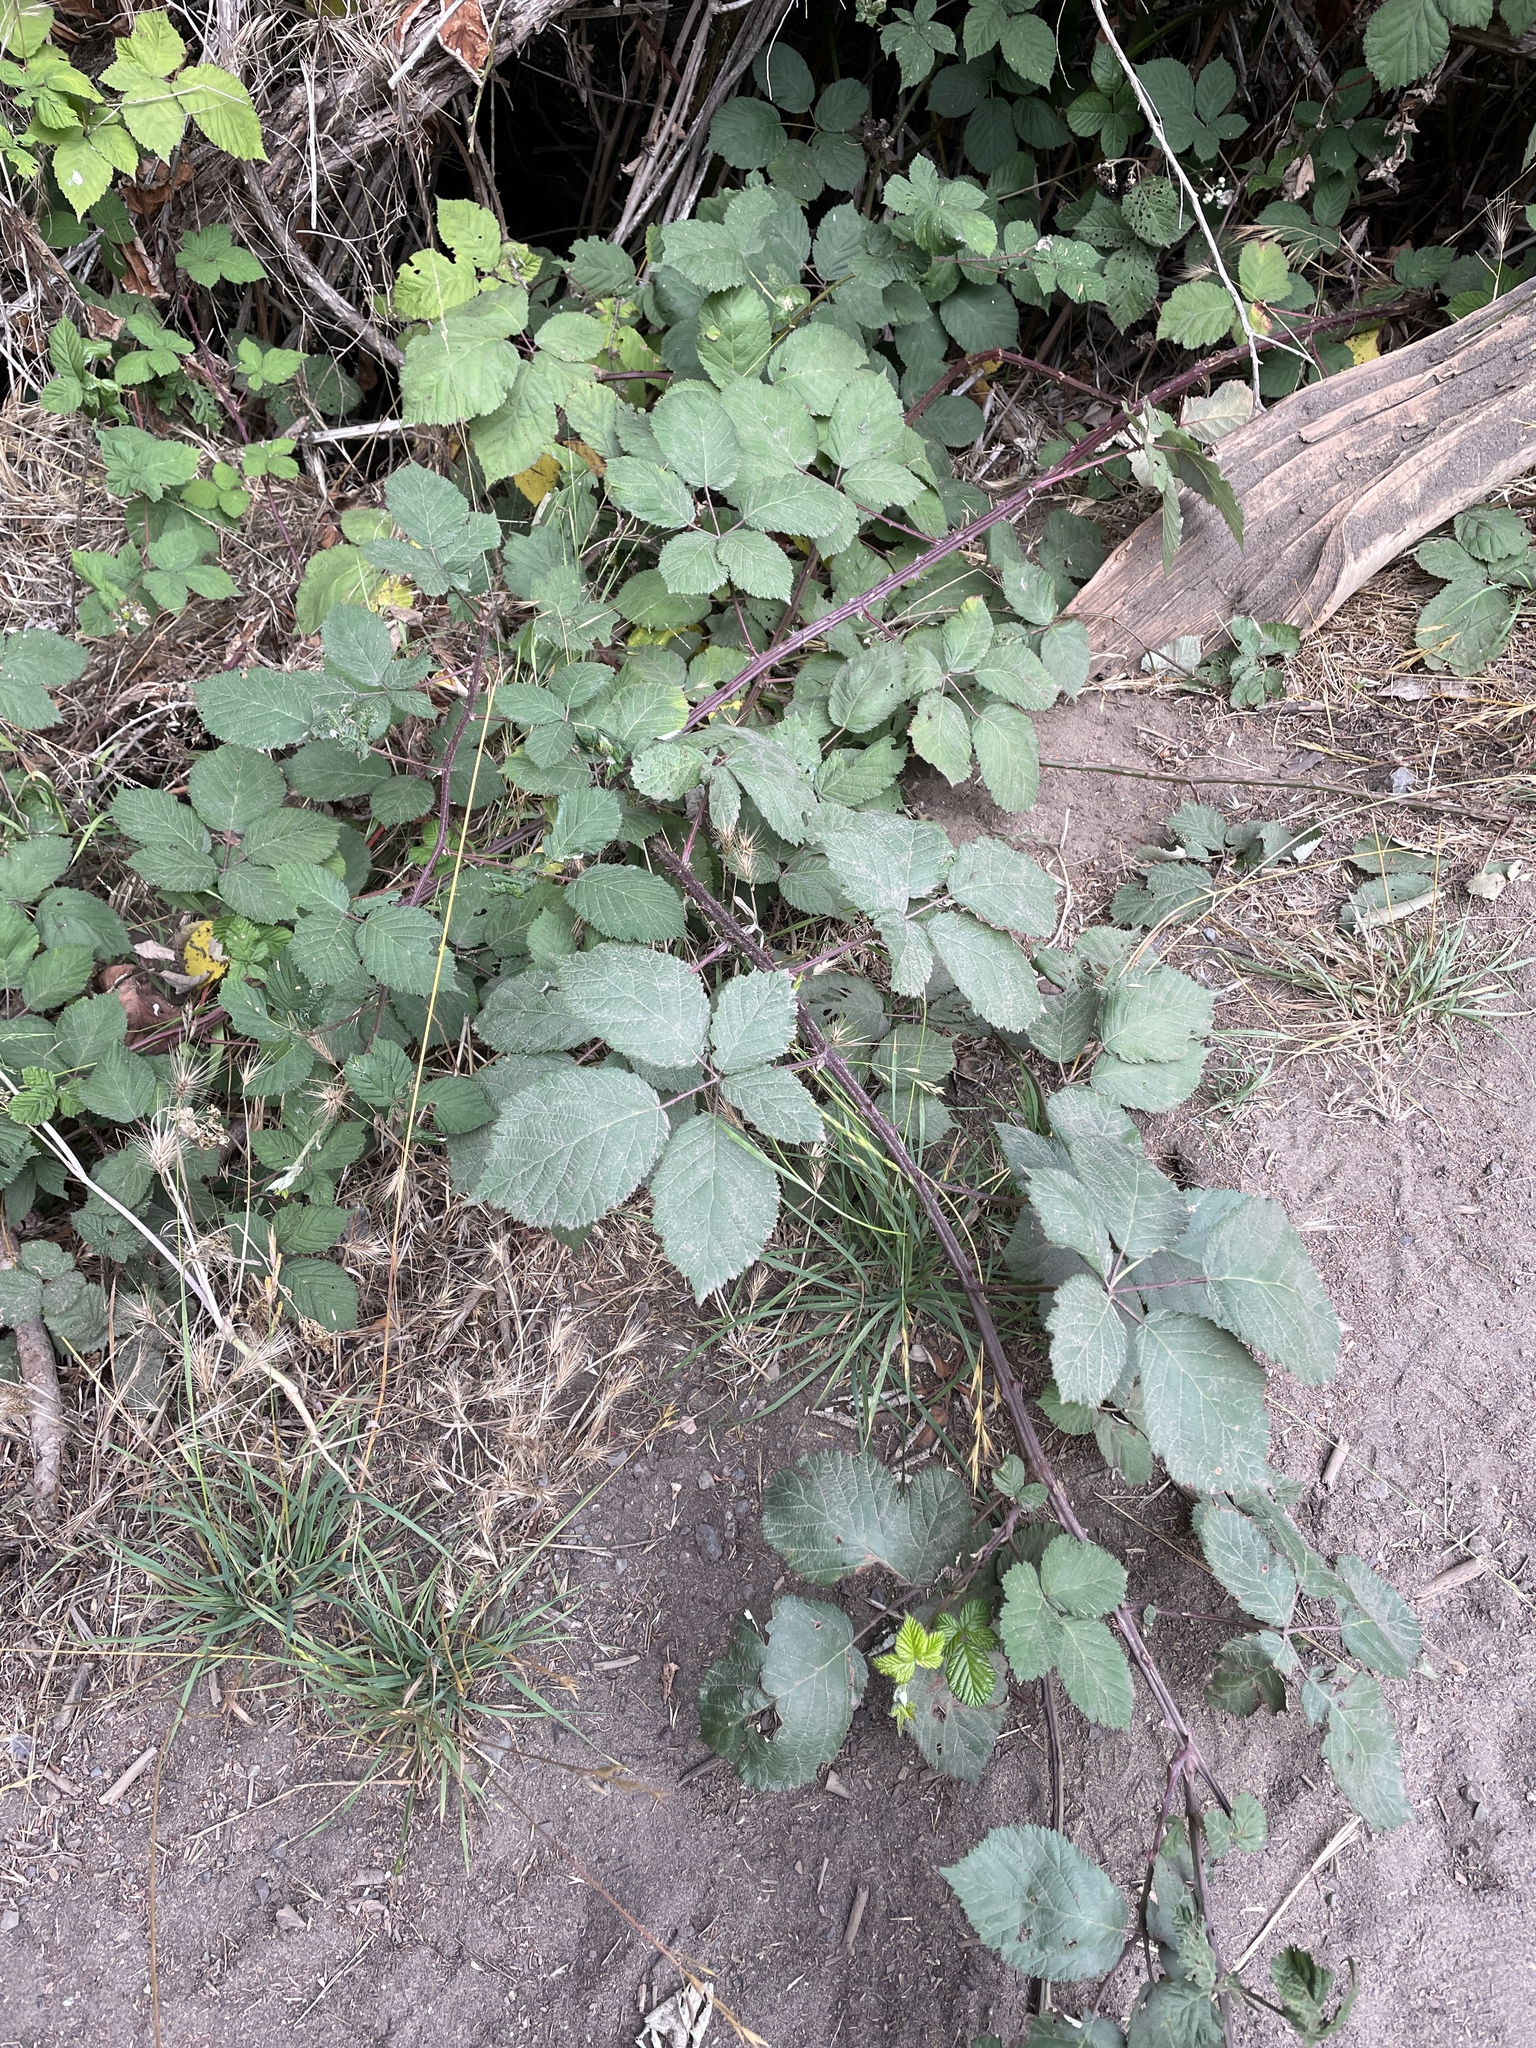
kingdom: Plantae
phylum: Tracheophyta
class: Magnoliopsida
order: Rosales
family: Rosaceae
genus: Rubus
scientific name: Rubus armeniacus
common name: Himalayan blackberry
